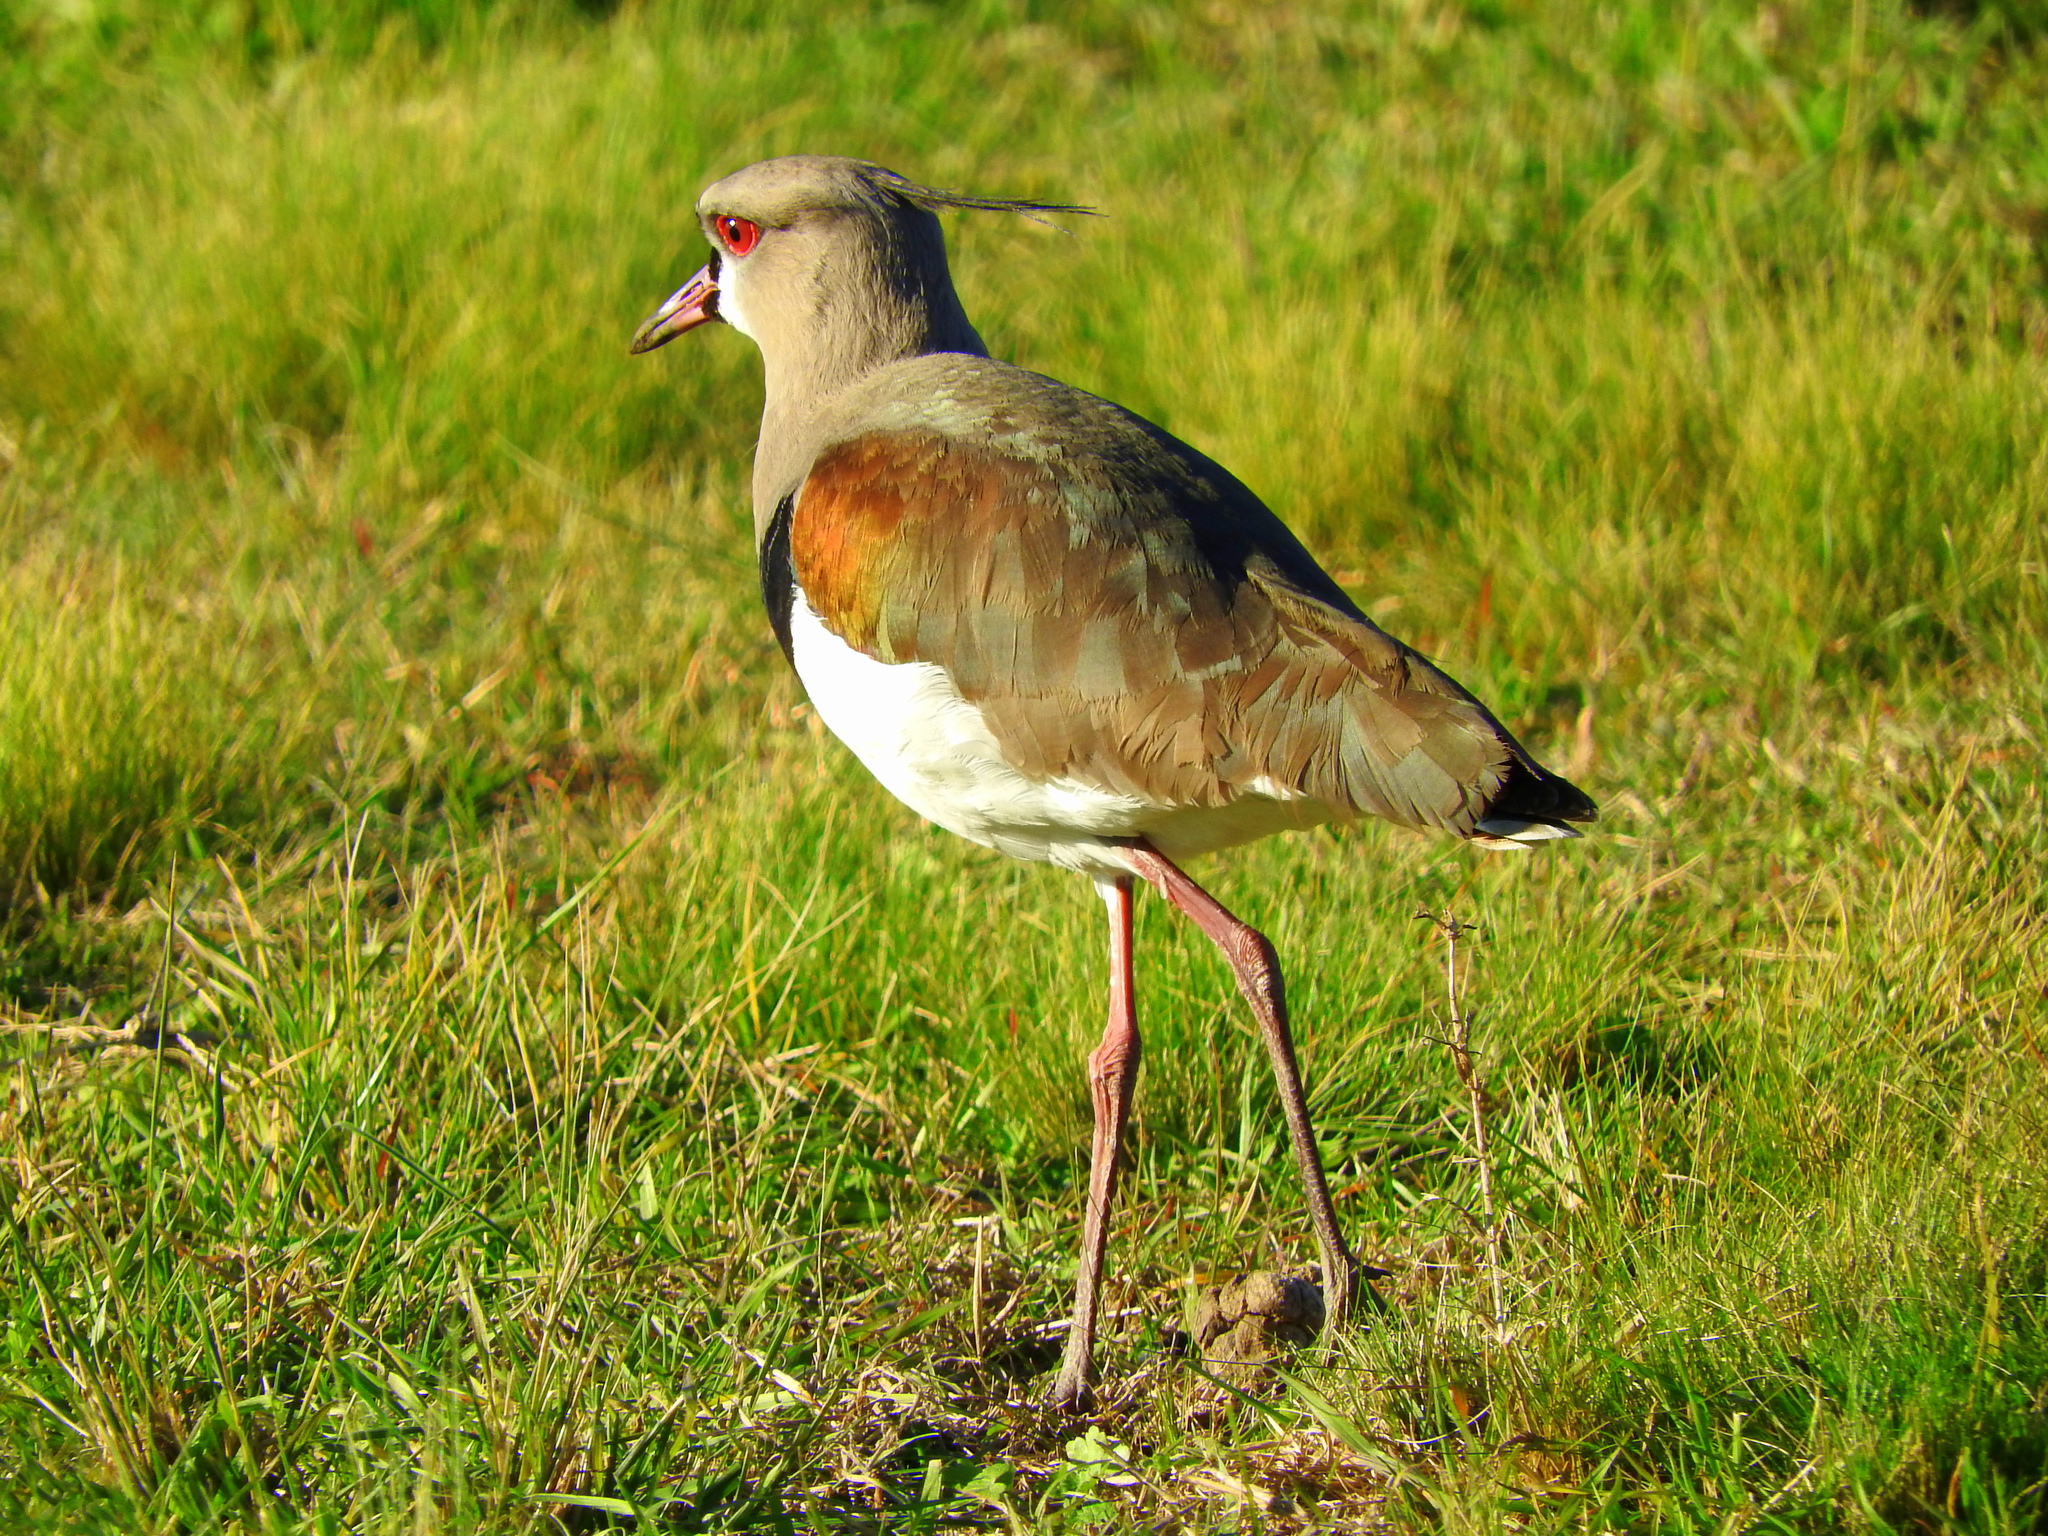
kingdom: Animalia
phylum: Chordata
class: Aves
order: Charadriiformes
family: Charadriidae
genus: Vanellus
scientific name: Vanellus chilensis
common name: Southern lapwing
